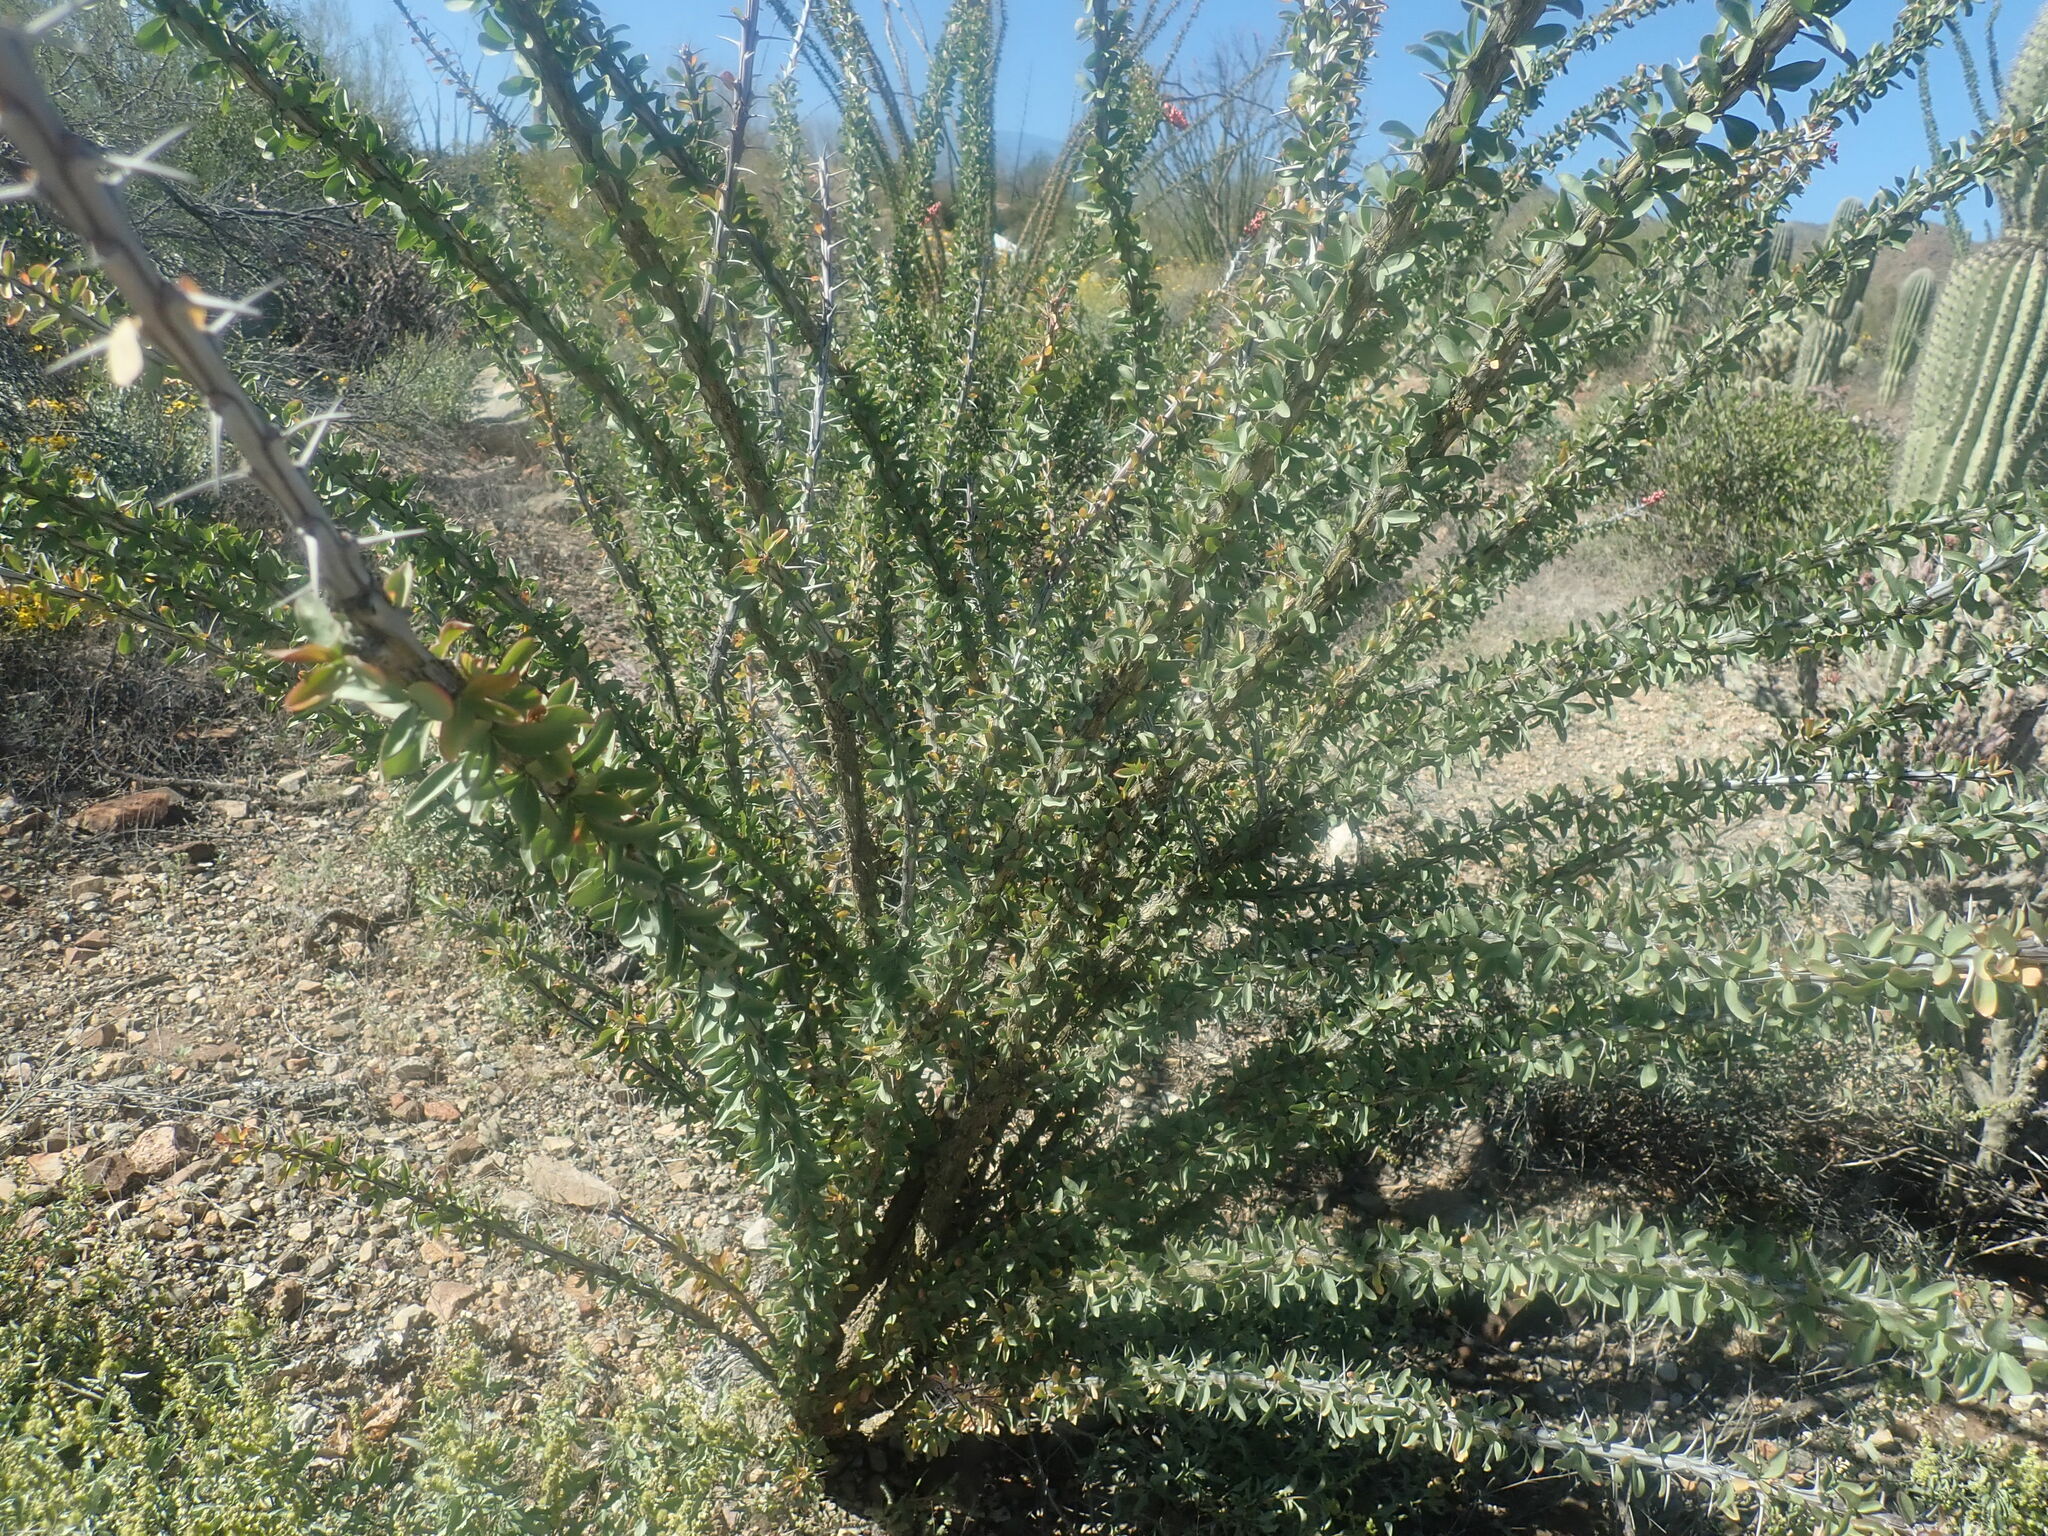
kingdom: Plantae
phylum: Tracheophyta
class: Magnoliopsida
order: Ericales
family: Fouquieriaceae
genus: Fouquieria
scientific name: Fouquieria splendens
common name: Vine-cactus
